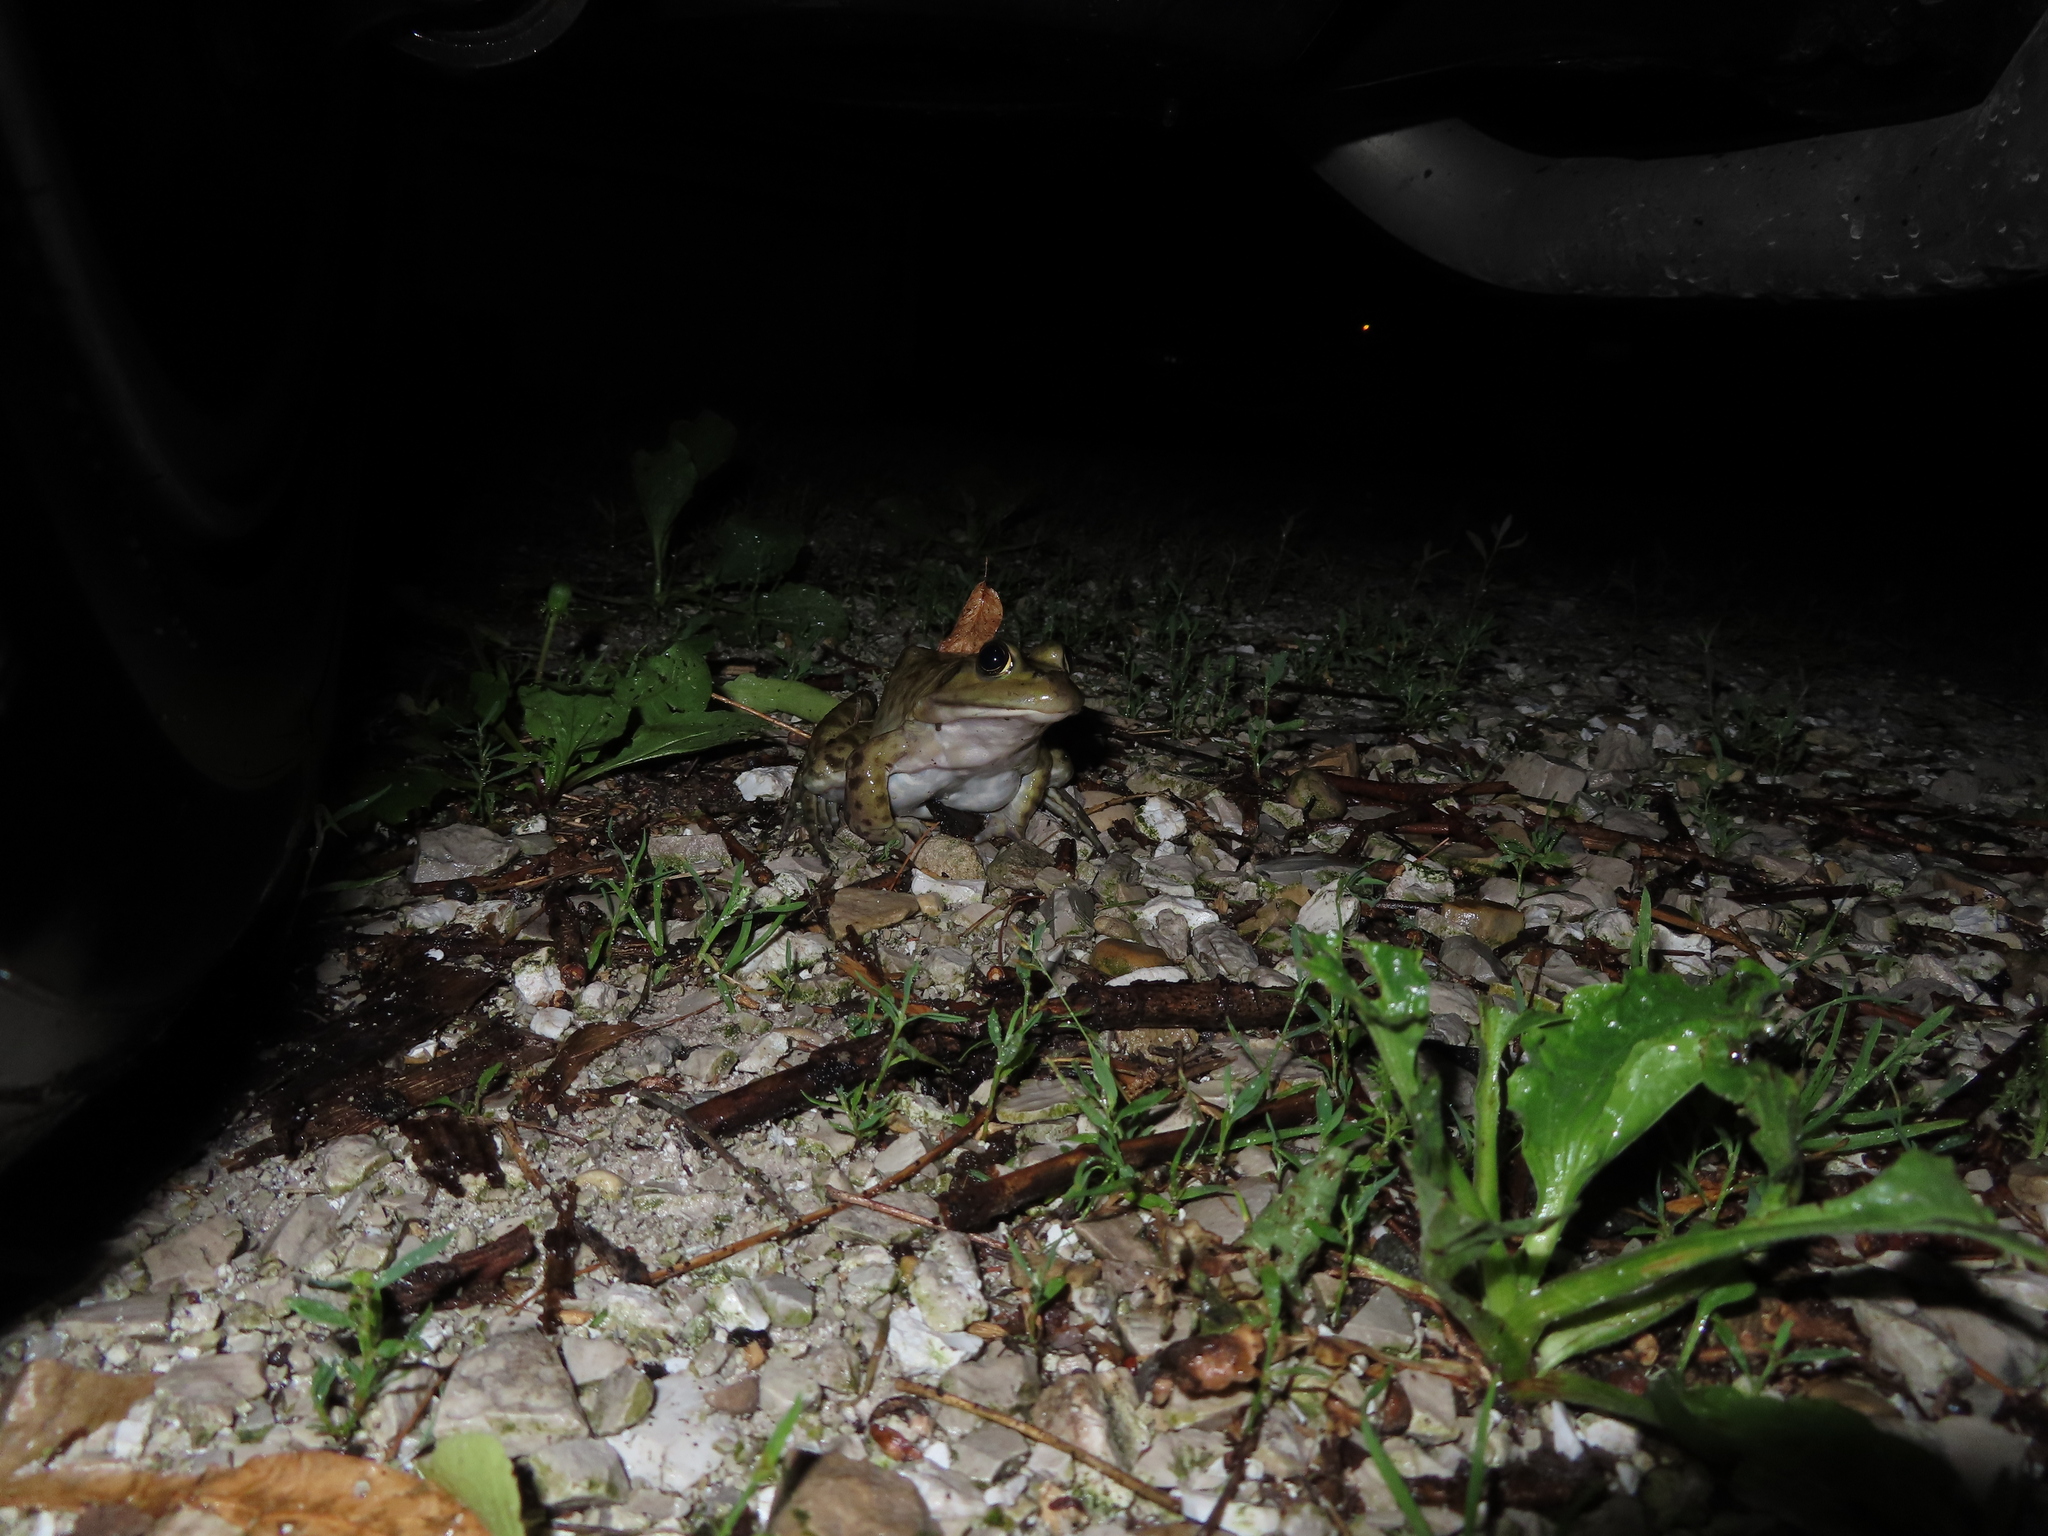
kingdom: Animalia
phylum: Chordata
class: Amphibia
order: Anura
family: Ranidae
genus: Lithobates
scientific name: Lithobates catesbeianus
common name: American bullfrog
